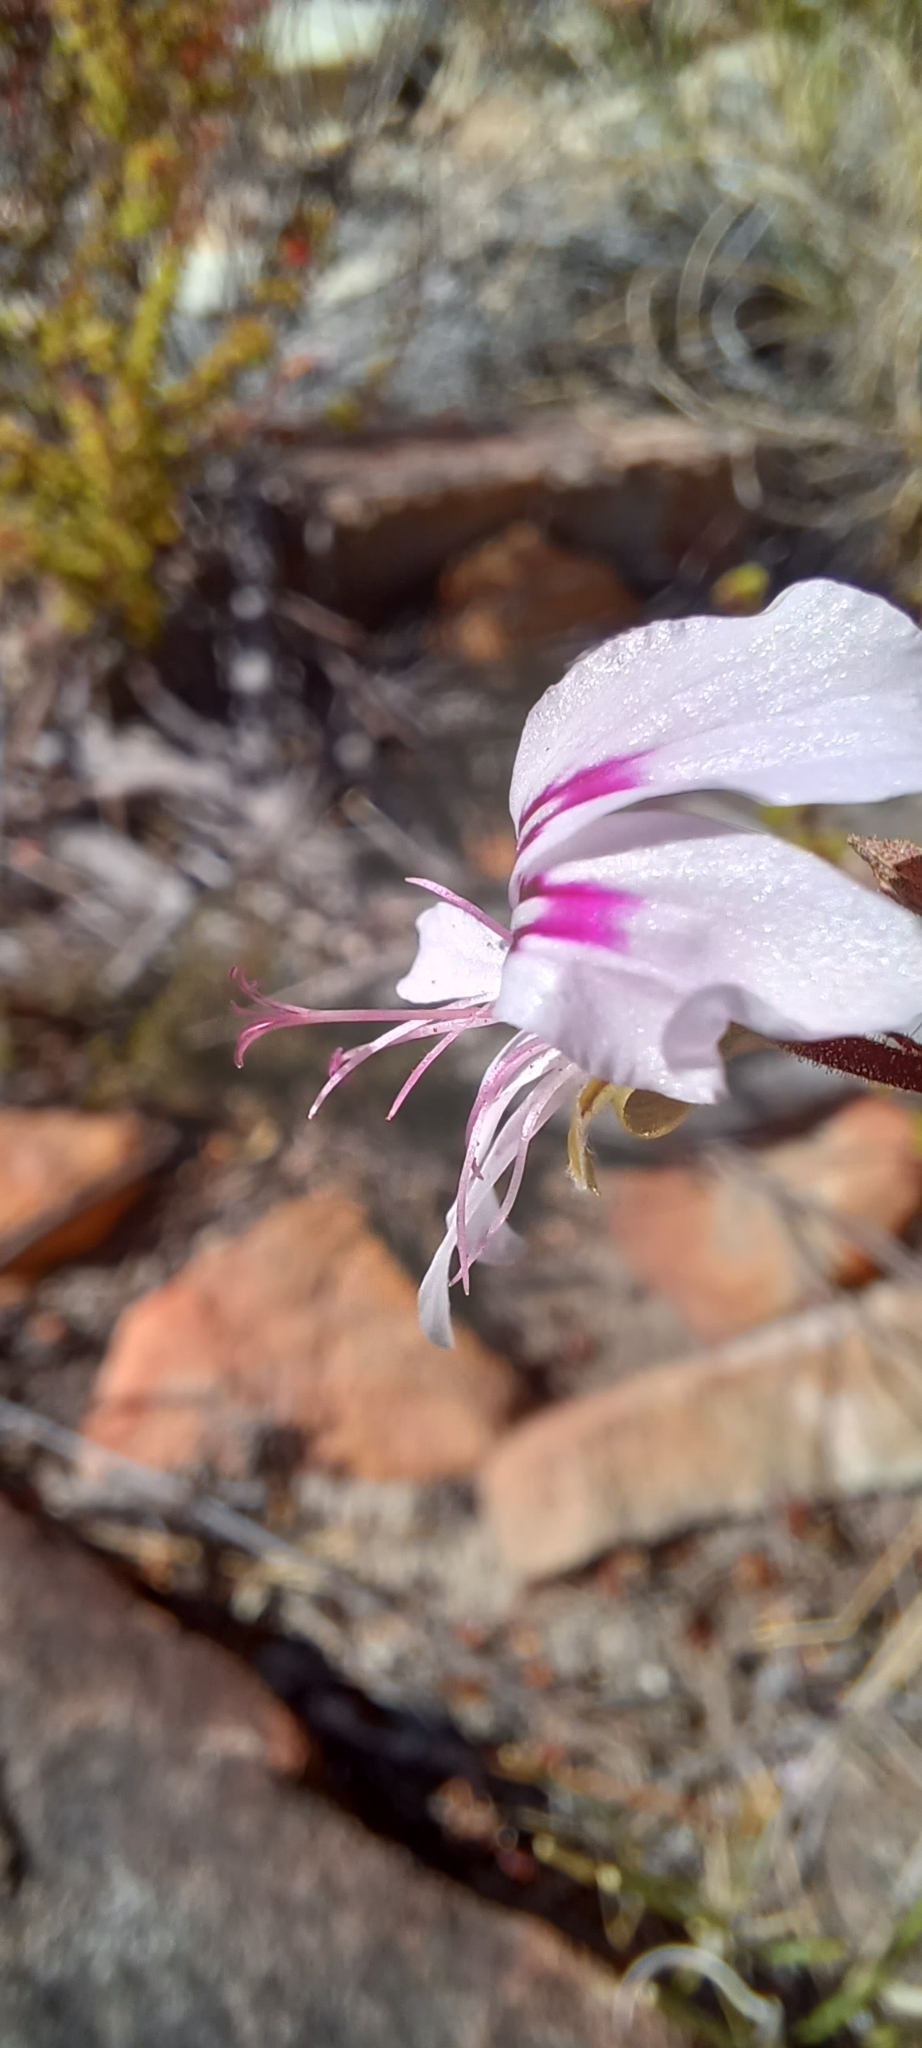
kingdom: Plantae
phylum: Tracheophyta
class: Magnoliopsida
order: Geraniales
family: Geraniaceae
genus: Pelargonium
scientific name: Pelargonium crispum
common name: Crisped-leaf pelargonium
